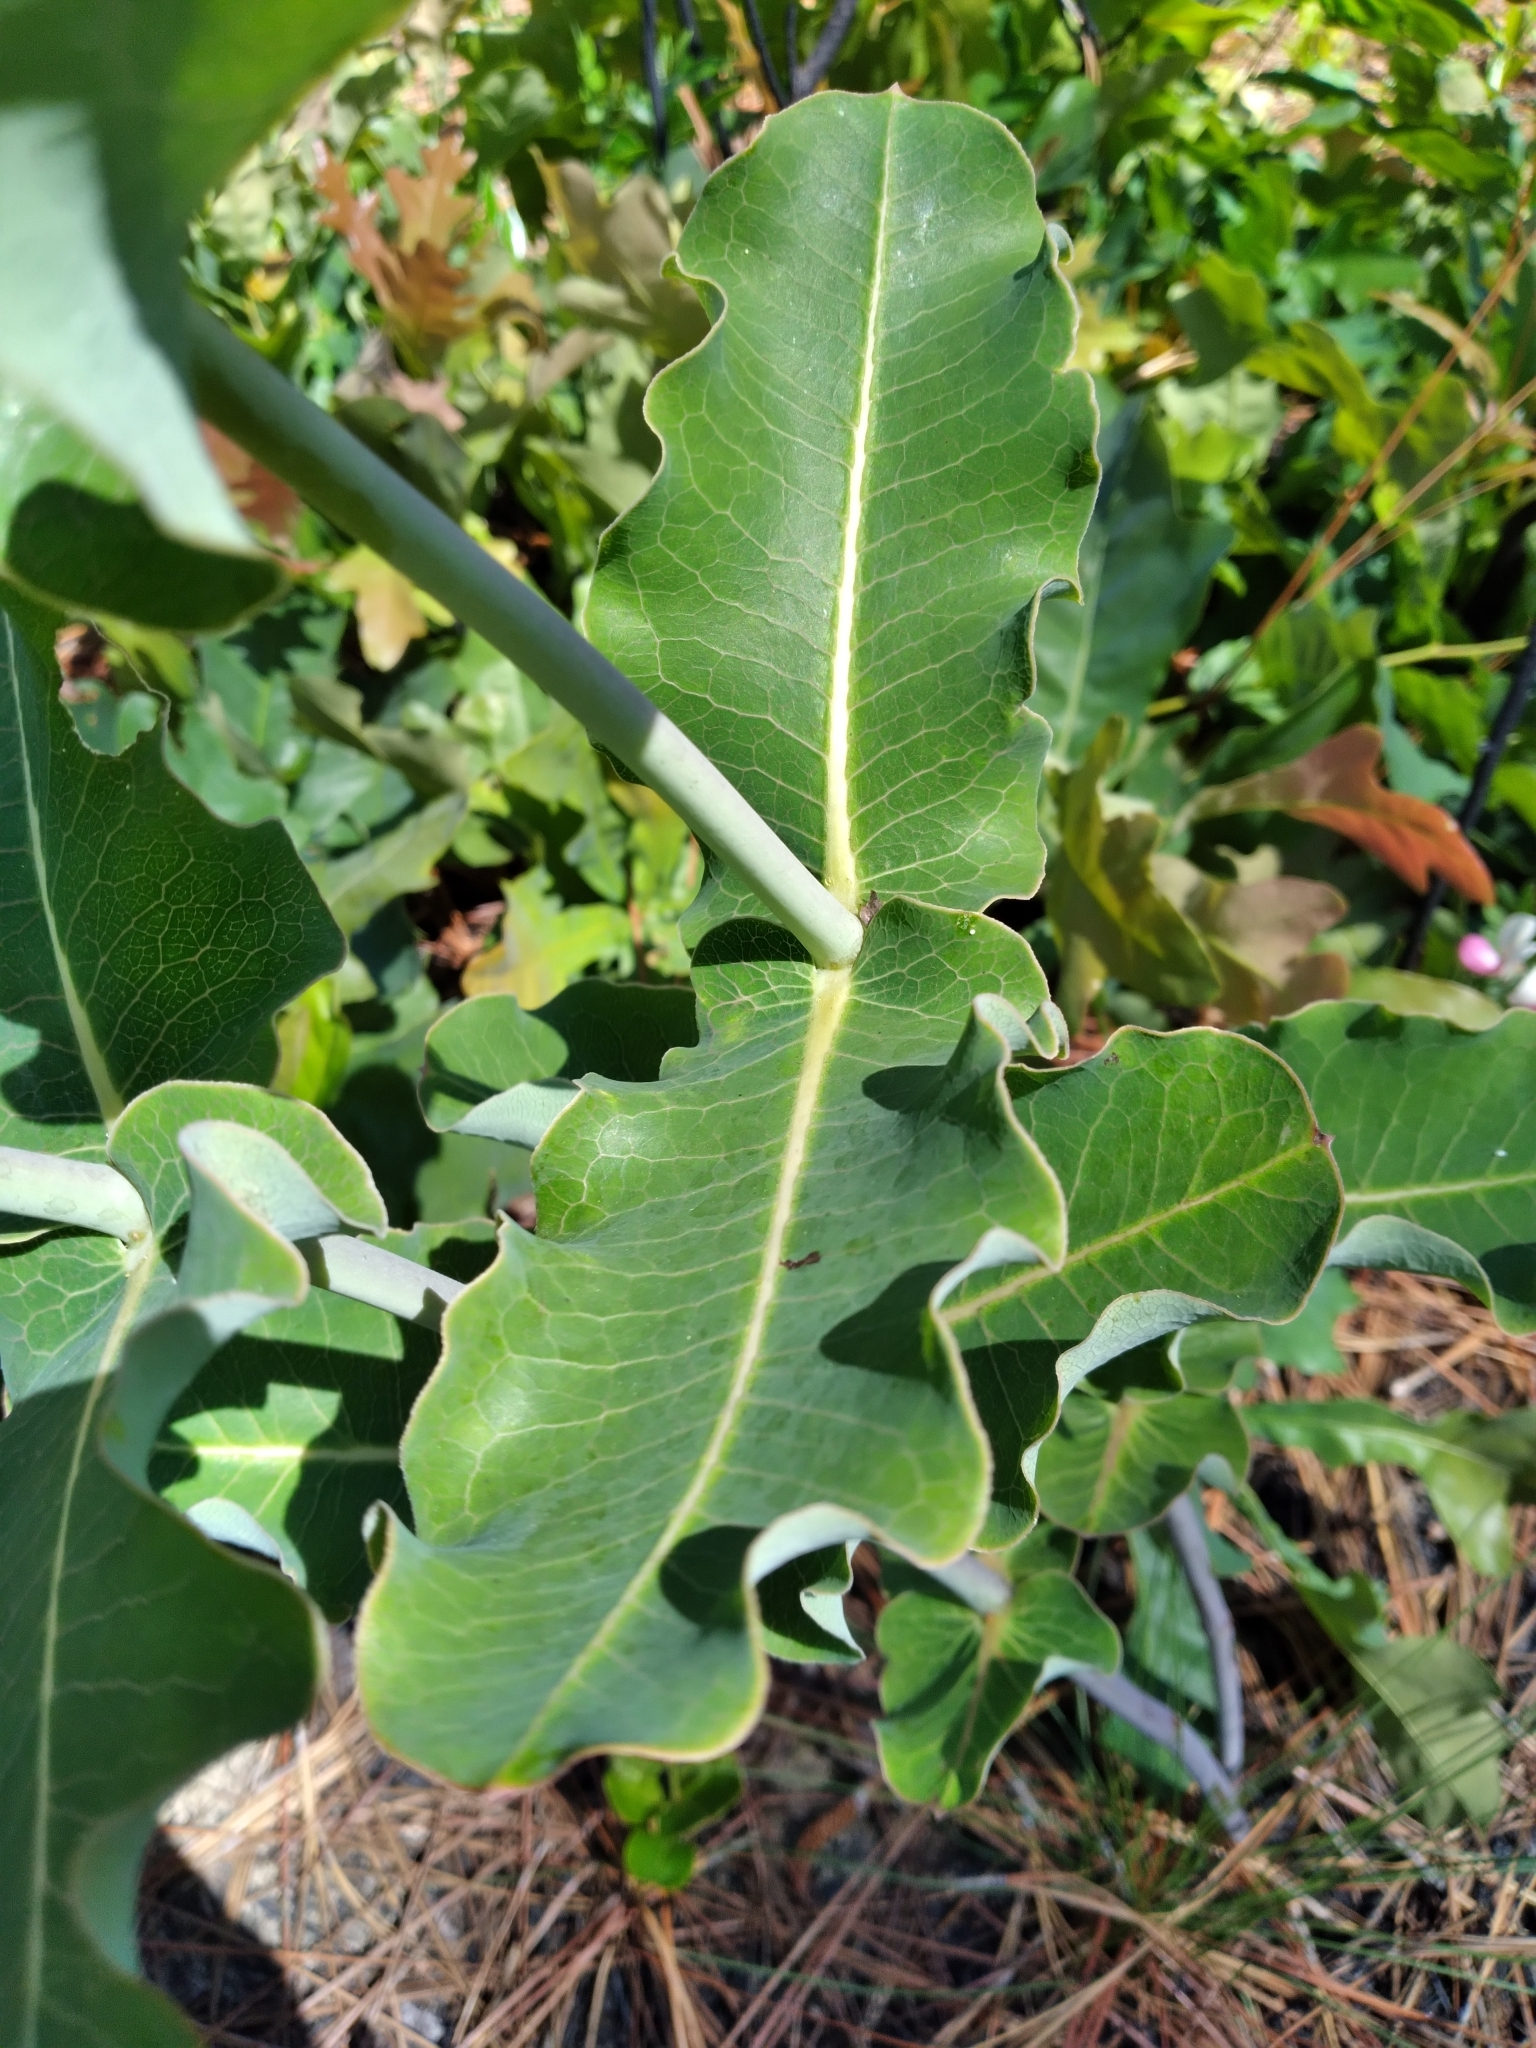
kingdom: Plantae
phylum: Tracheophyta
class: Magnoliopsida
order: Gentianales
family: Apocynaceae
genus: Asclepias
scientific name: Asclepias amplexicaulis
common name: Blunt-leaf milkweed
